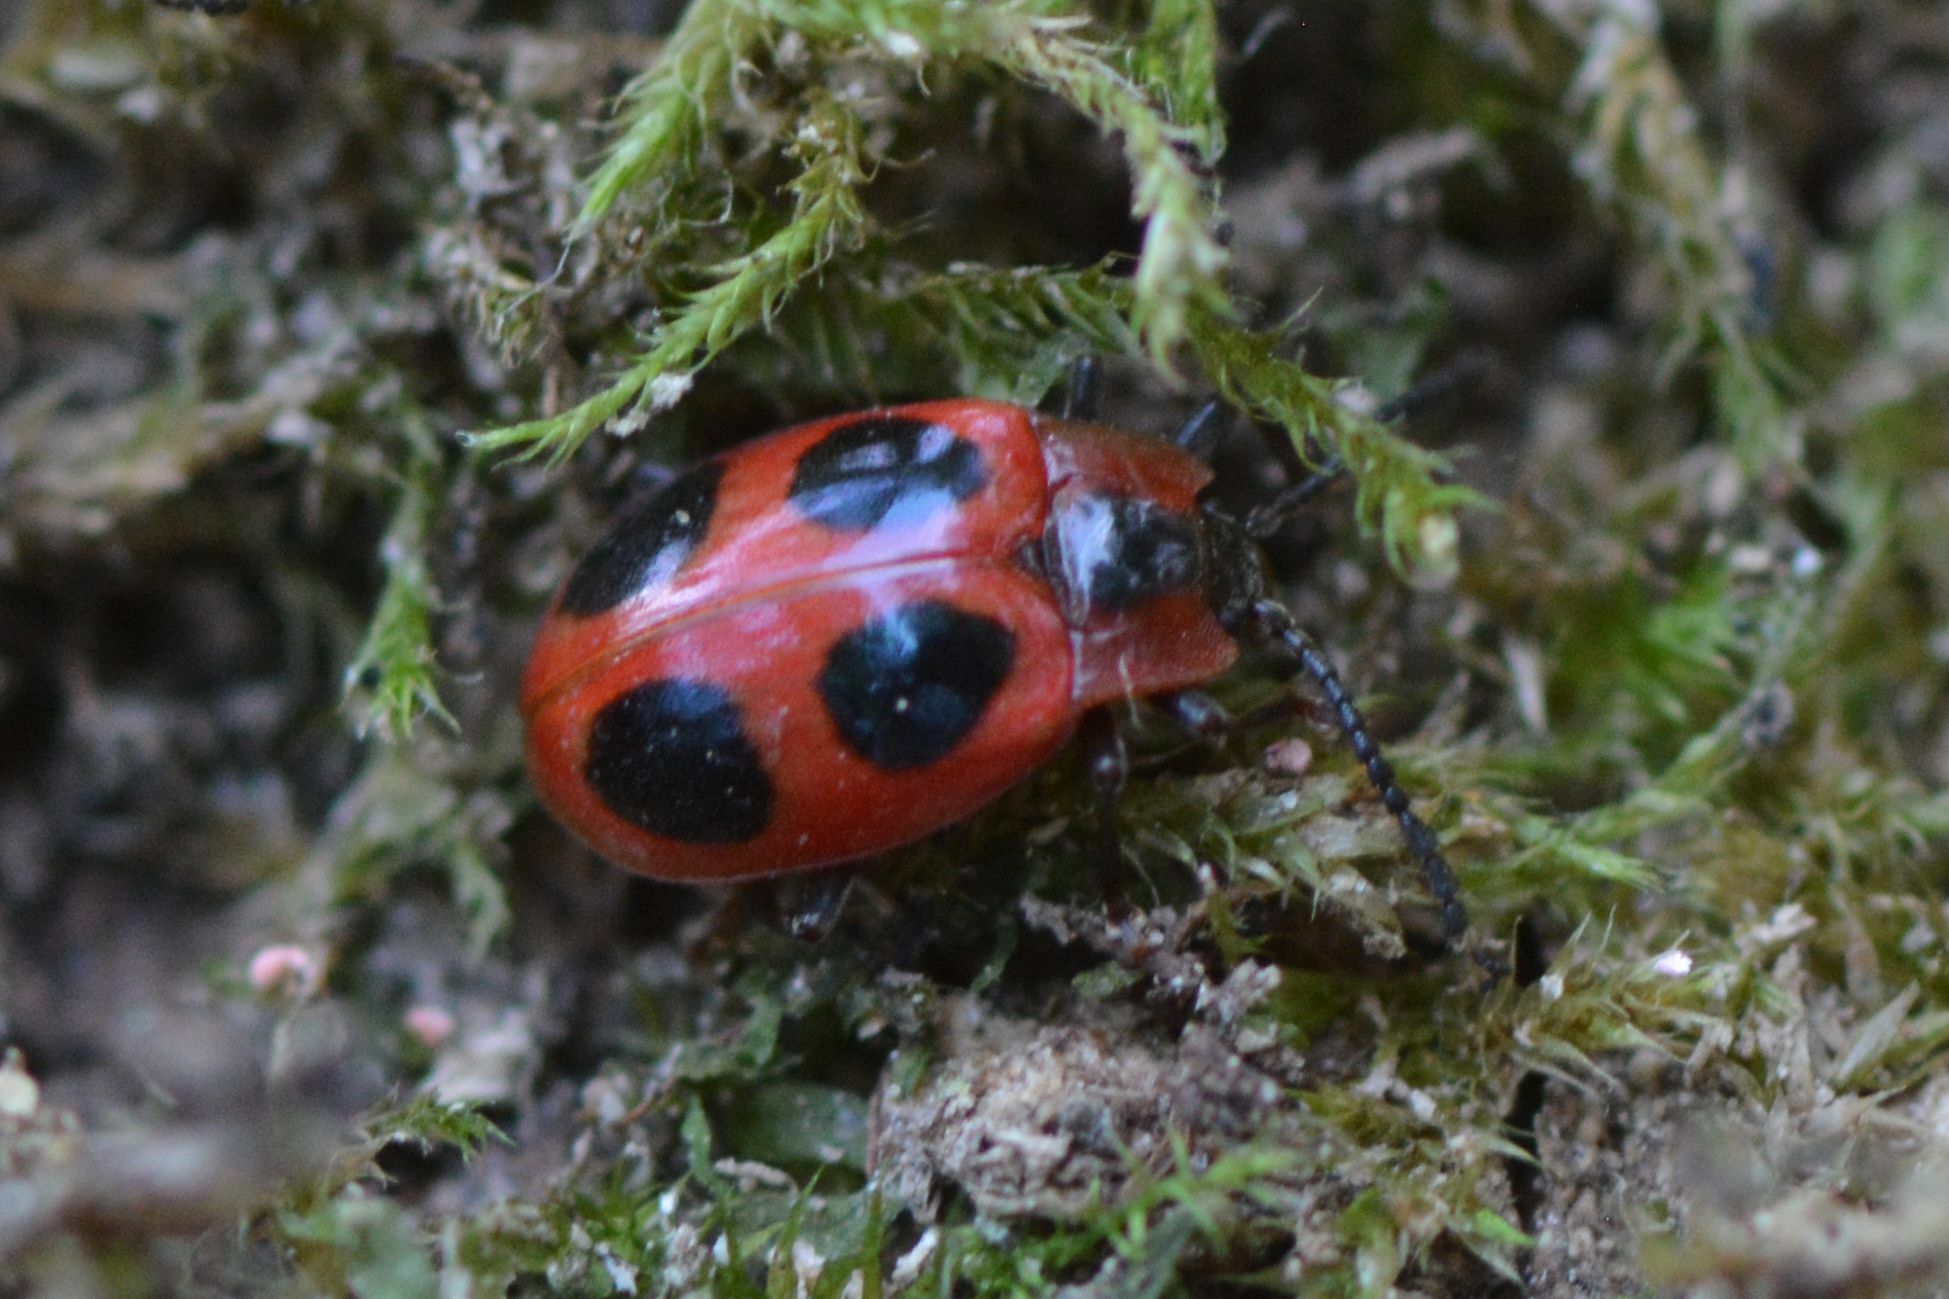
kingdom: Animalia
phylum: Arthropoda
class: Insecta
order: Coleoptera
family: Endomychidae
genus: Endomychus
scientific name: Endomychus coccineus
